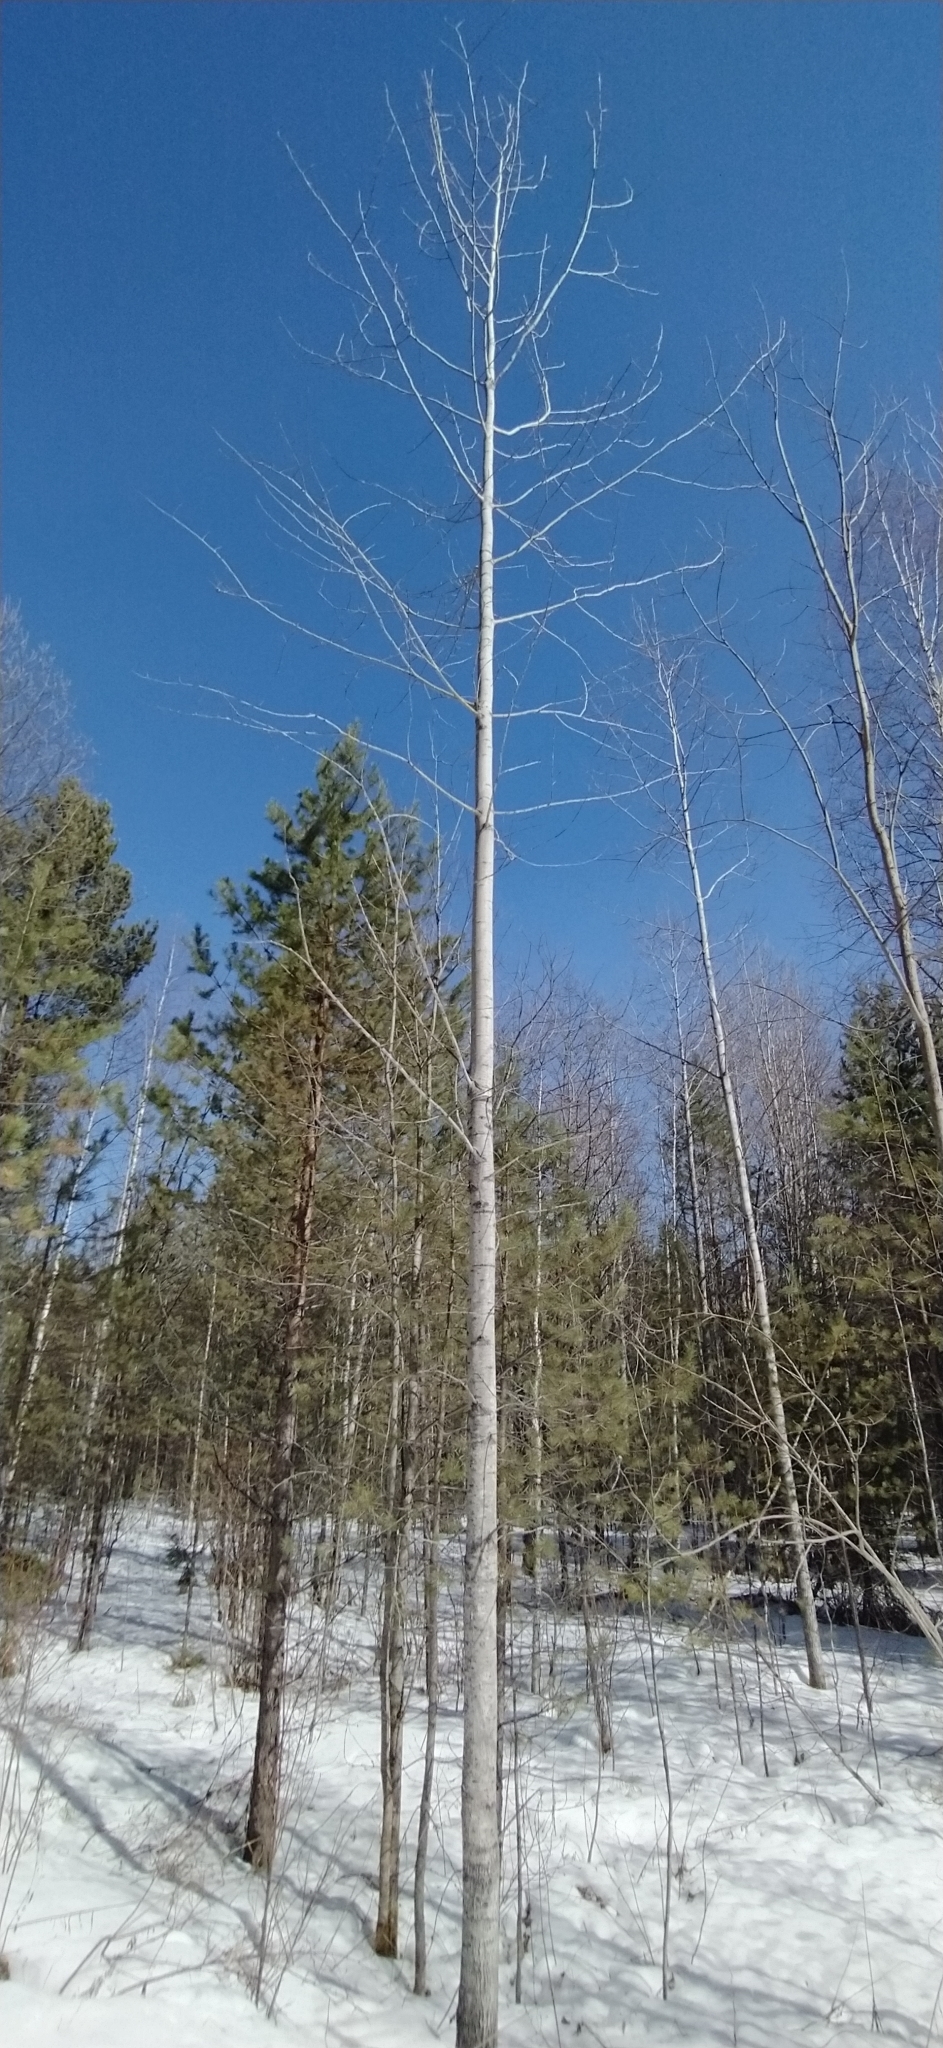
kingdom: Plantae
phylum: Tracheophyta
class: Magnoliopsida
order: Malpighiales
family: Salicaceae
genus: Populus
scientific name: Populus tremula
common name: European aspen
